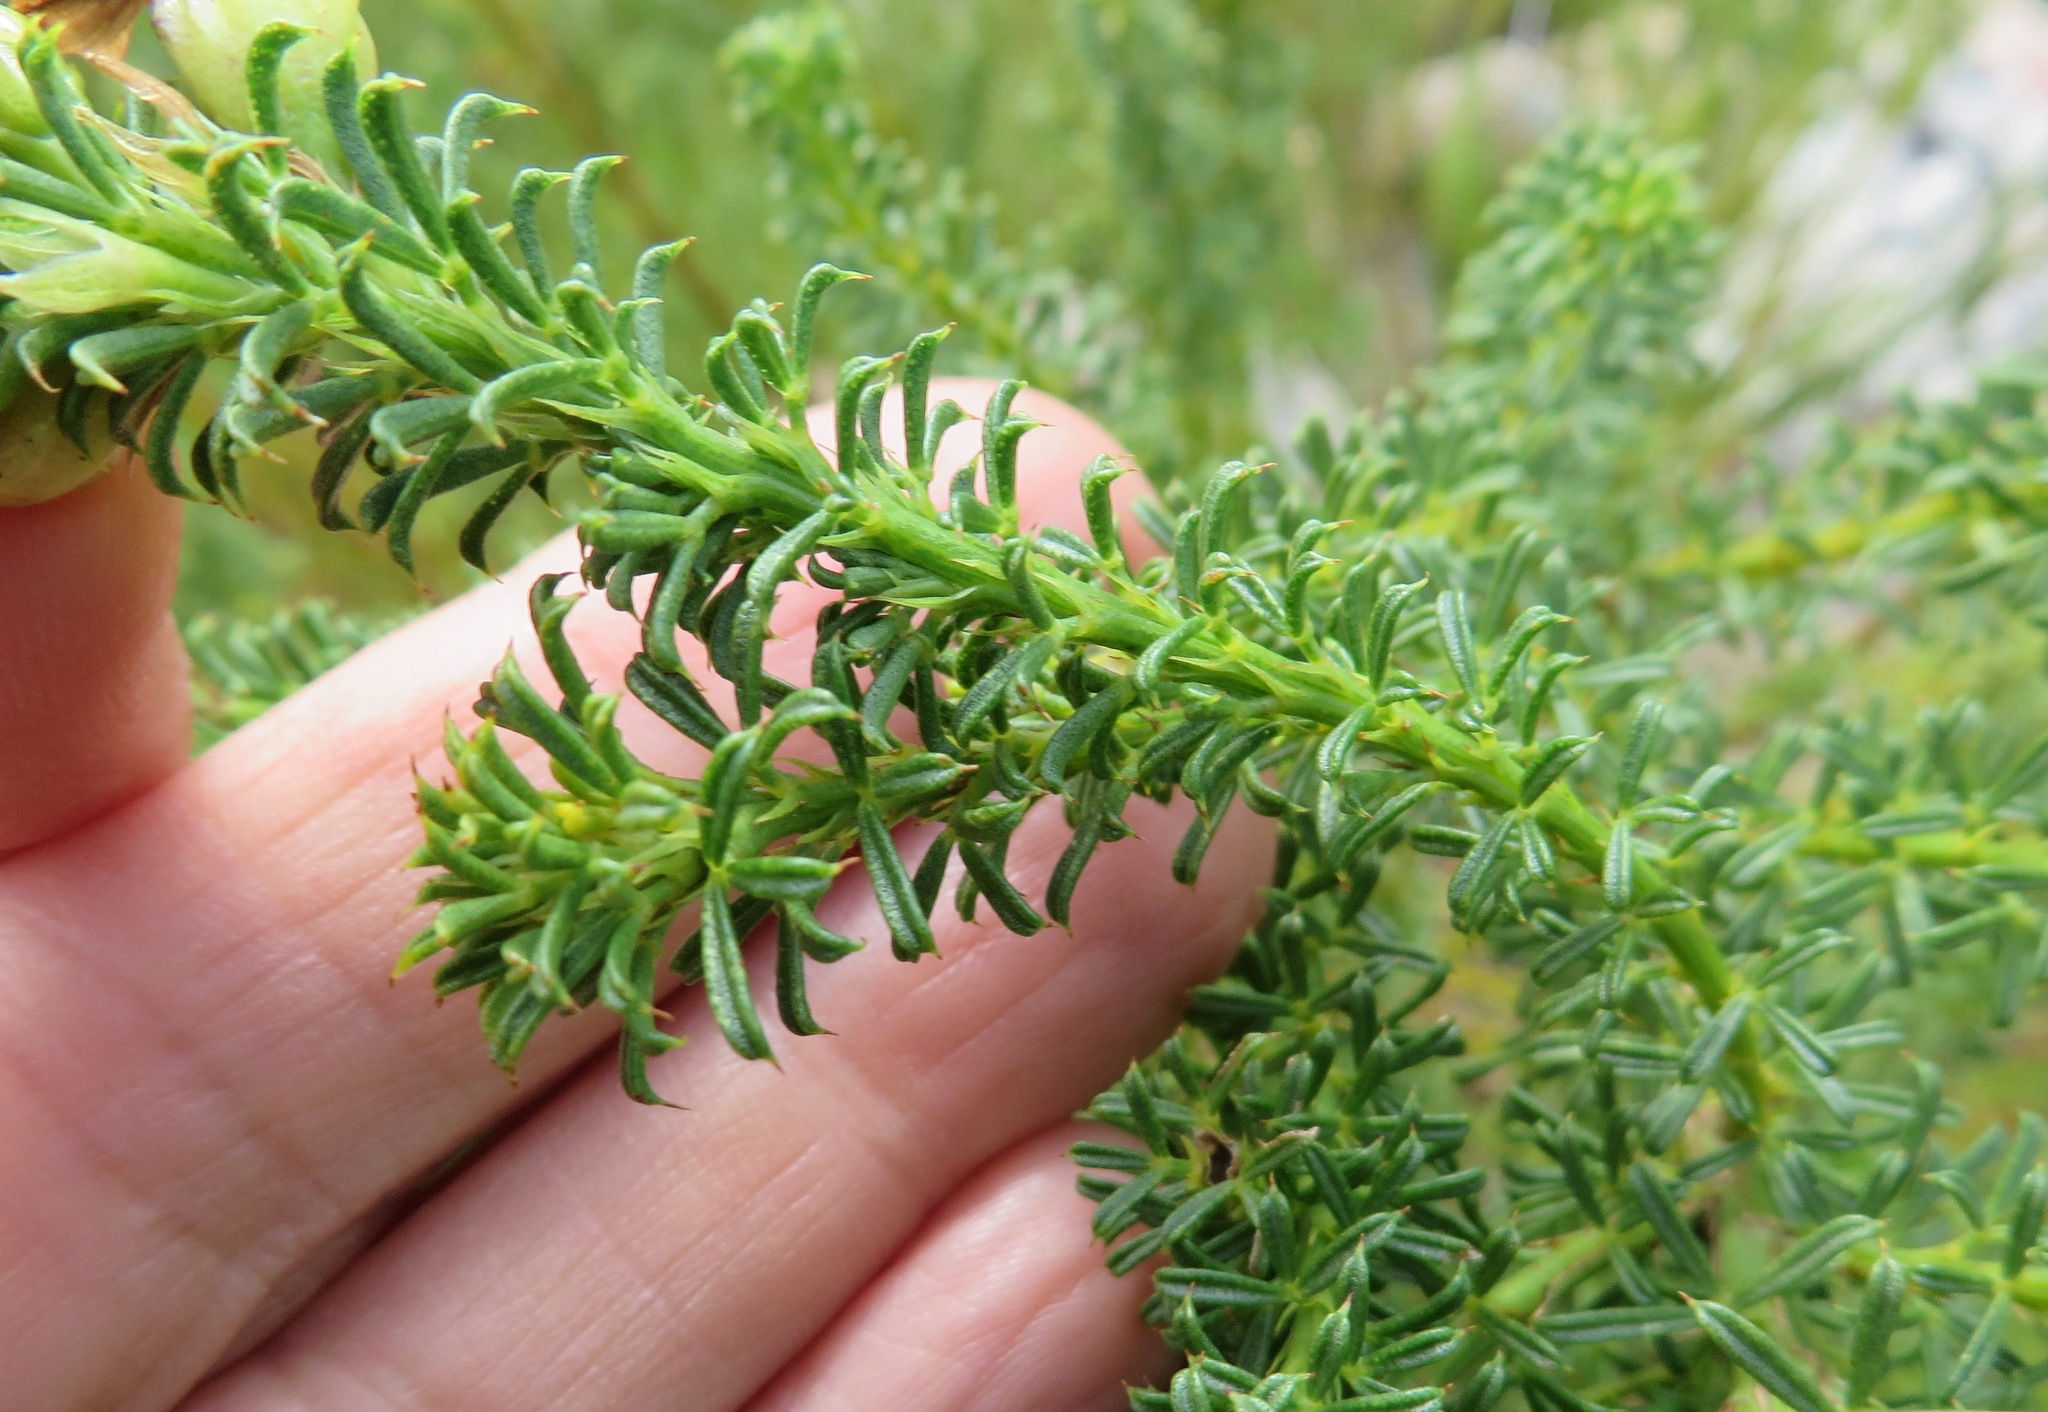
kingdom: Plantae
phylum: Tracheophyta
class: Magnoliopsida
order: Fabales
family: Fabaceae
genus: Psoralea
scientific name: Psoralea aculeata
